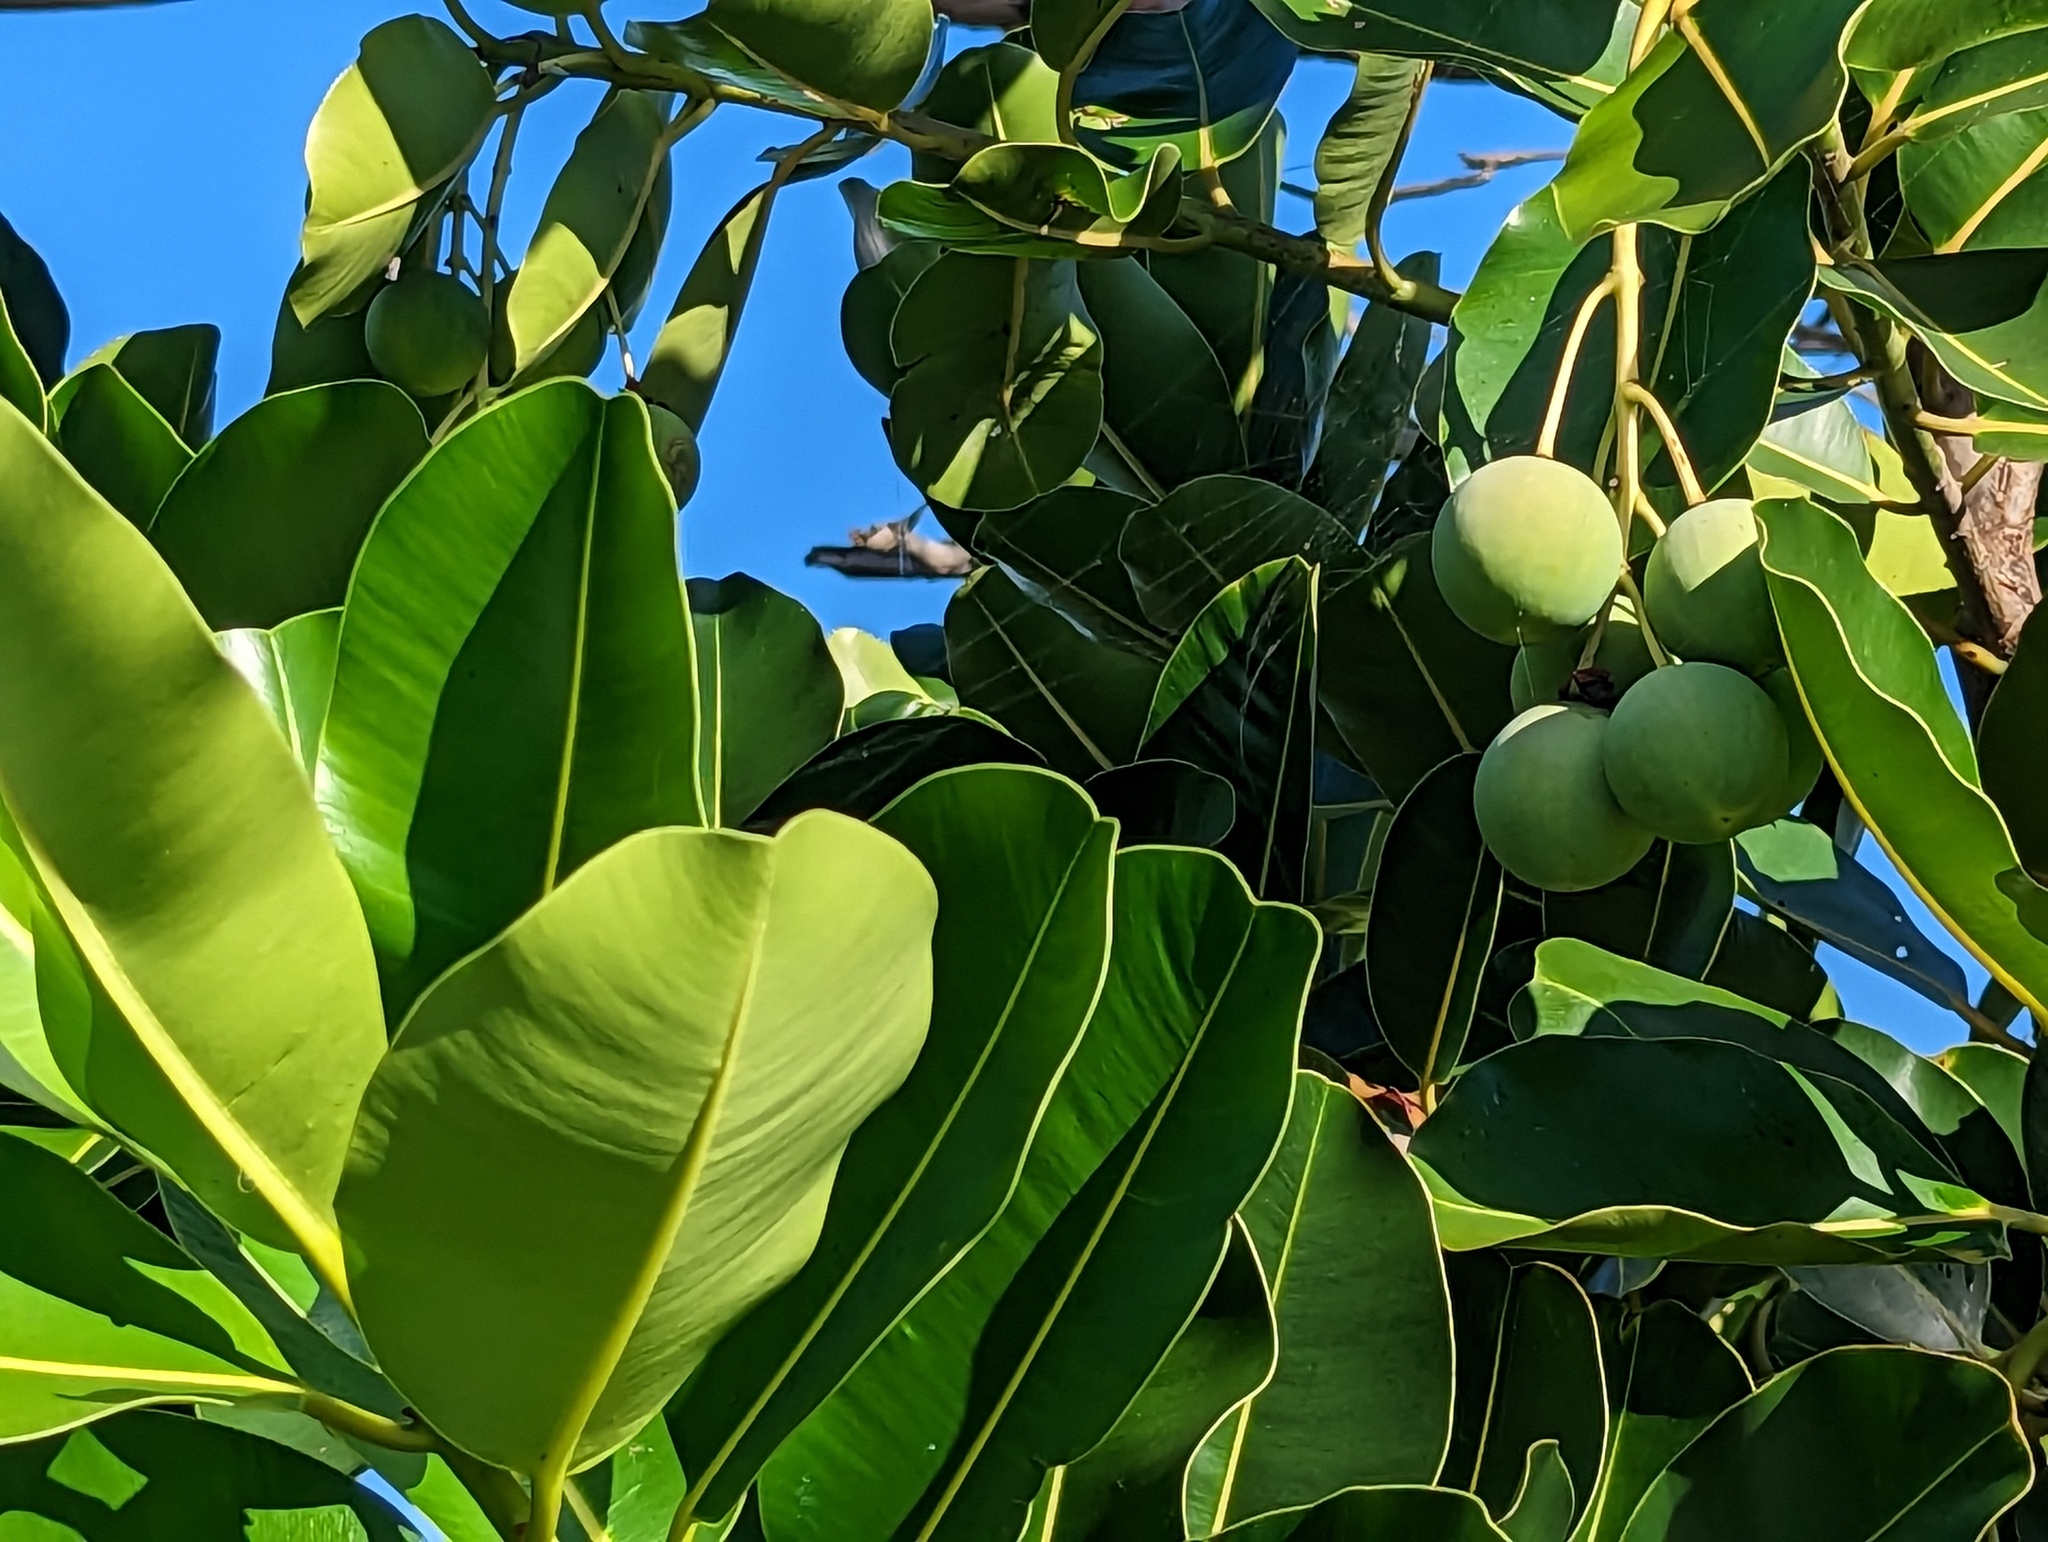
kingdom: Plantae
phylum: Tracheophyta
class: Magnoliopsida
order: Malpighiales
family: Calophyllaceae
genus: Calophyllum
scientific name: Calophyllum inophyllum
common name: Alexandrian laurel
